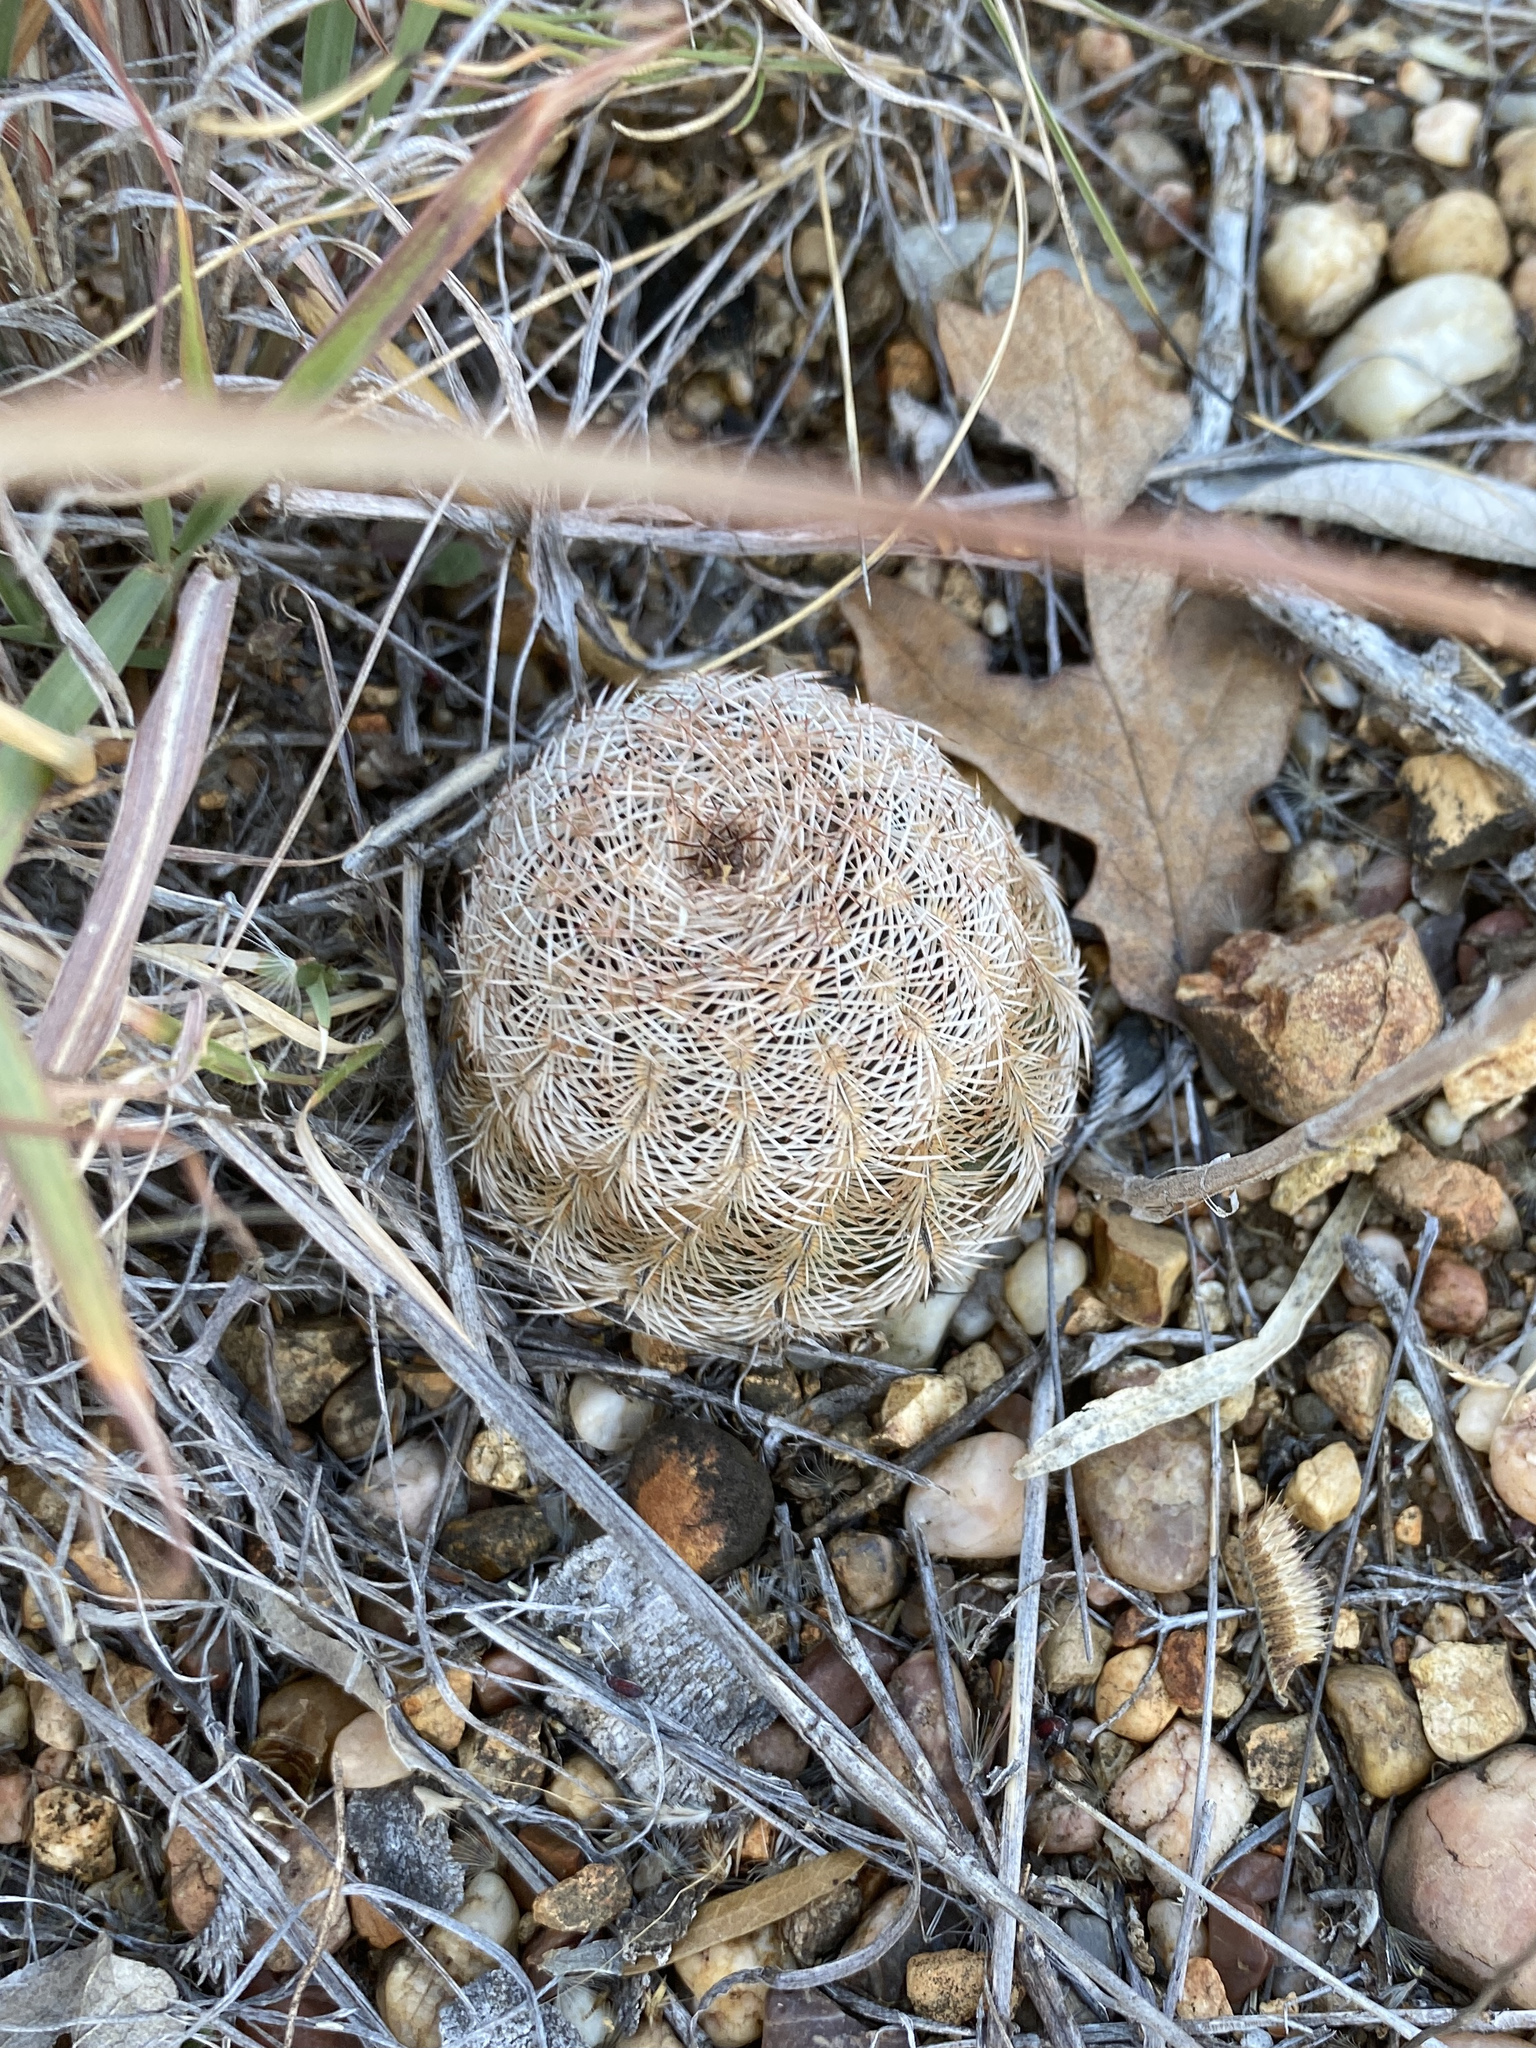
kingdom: Plantae
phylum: Tracheophyta
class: Magnoliopsida
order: Caryophyllales
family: Cactaceae
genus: Echinocereus
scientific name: Echinocereus reichenbachii
